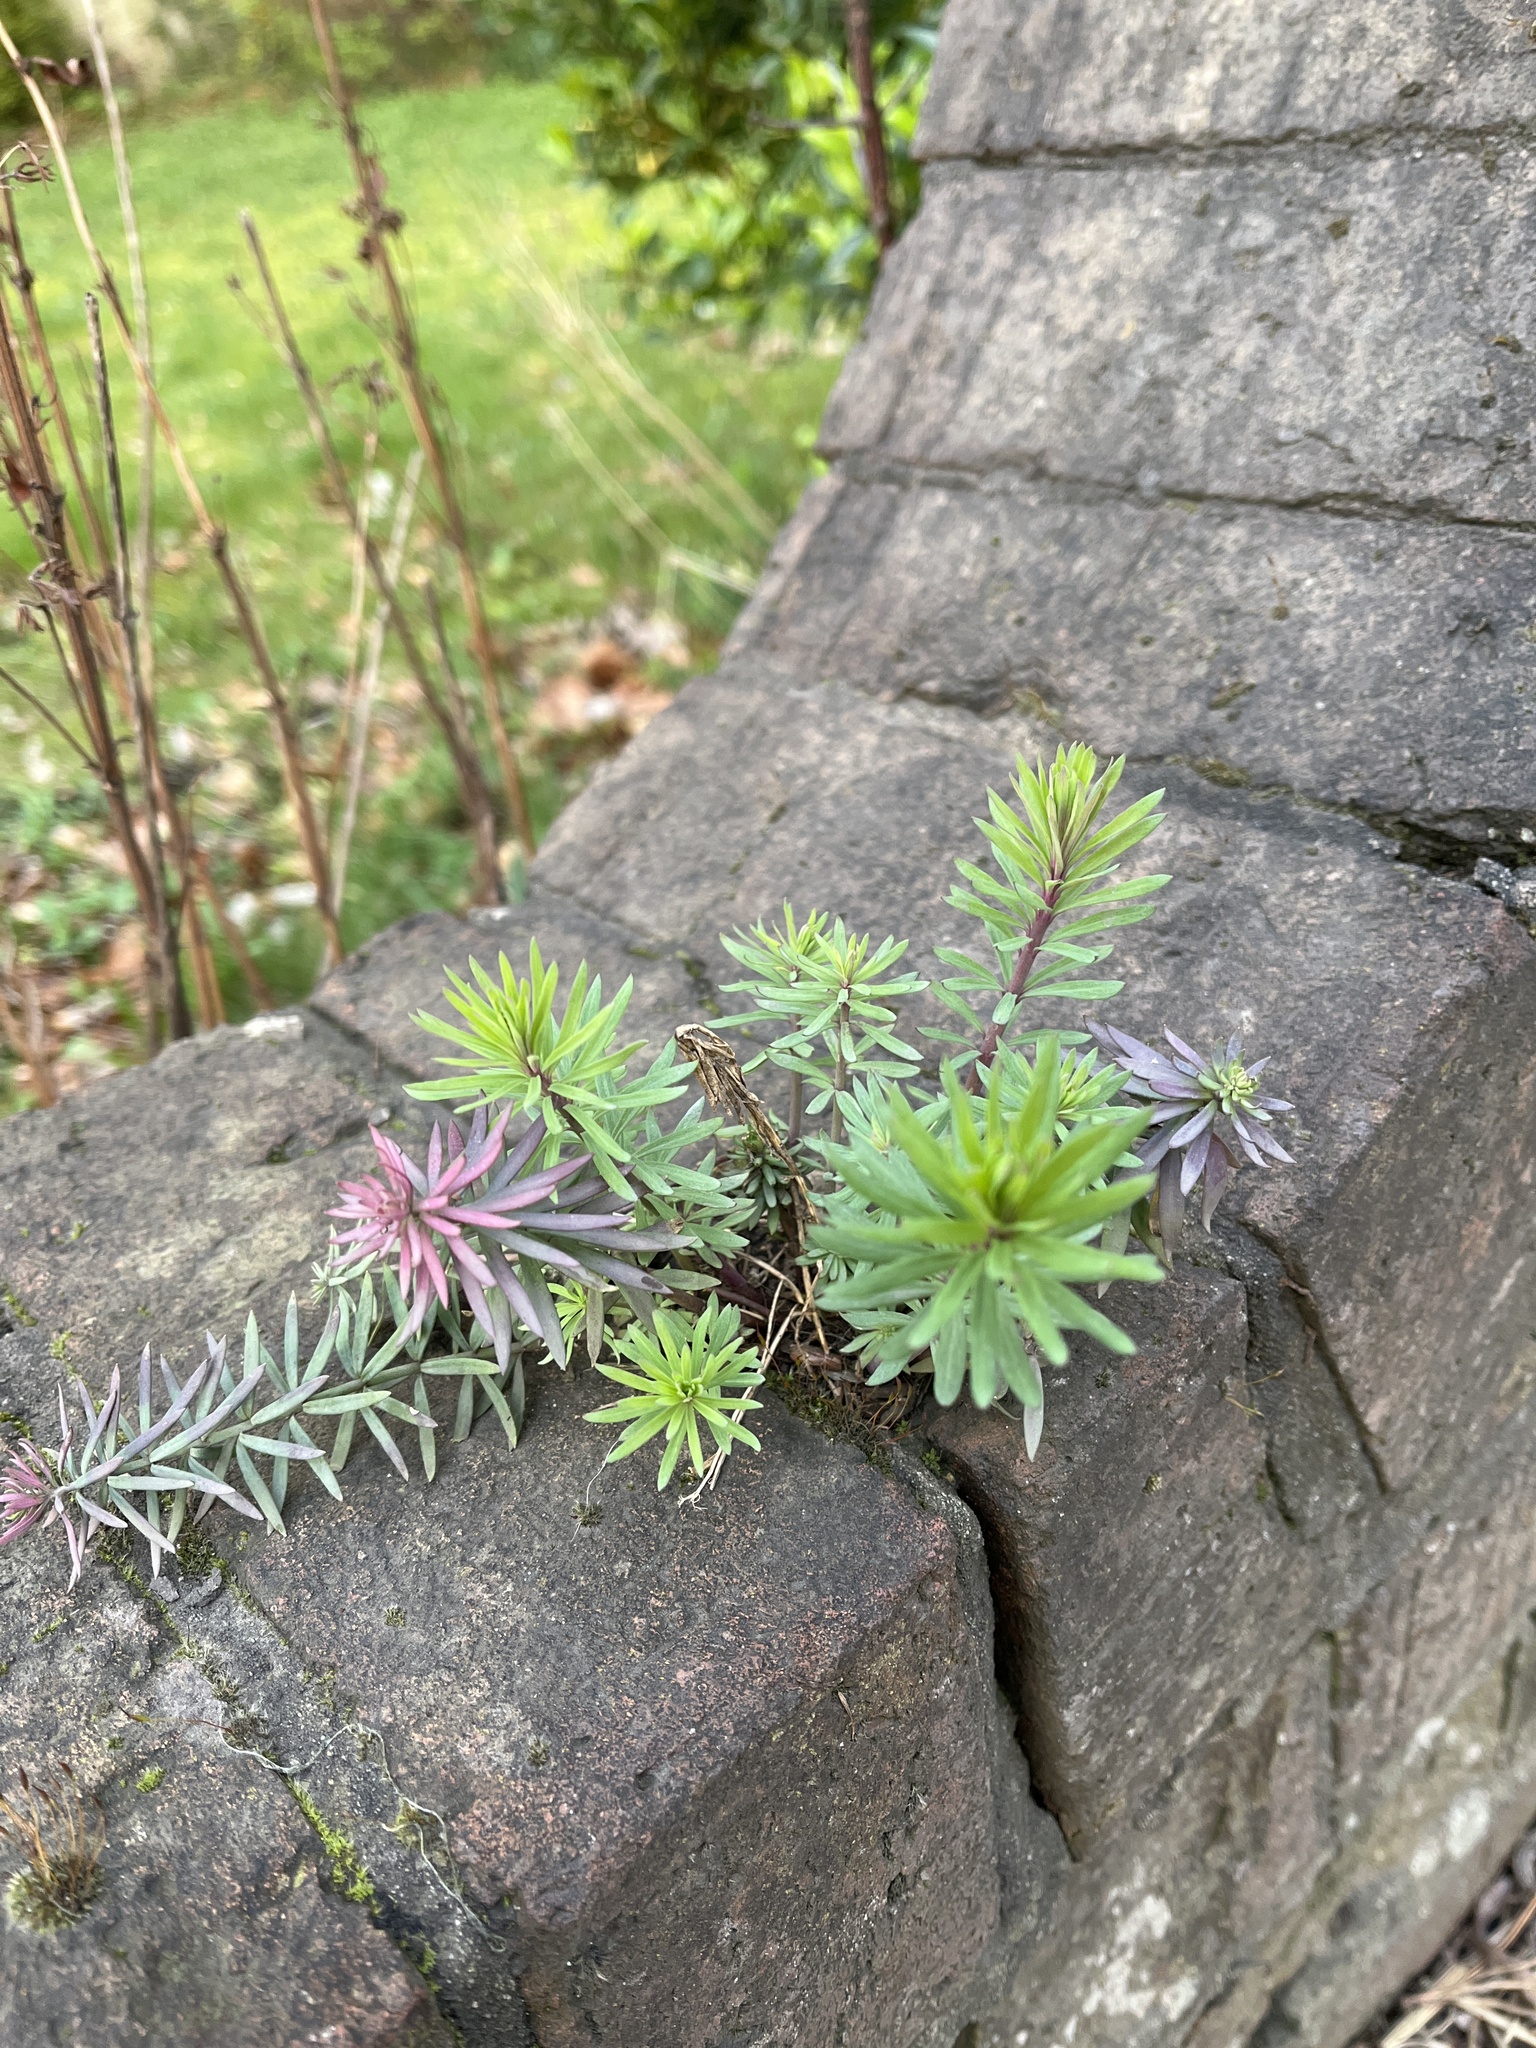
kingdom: Plantae
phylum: Tracheophyta
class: Magnoliopsida
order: Lamiales
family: Plantaginaceae
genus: Linaria
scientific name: Linaria purpurea
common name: Purple toadflax
